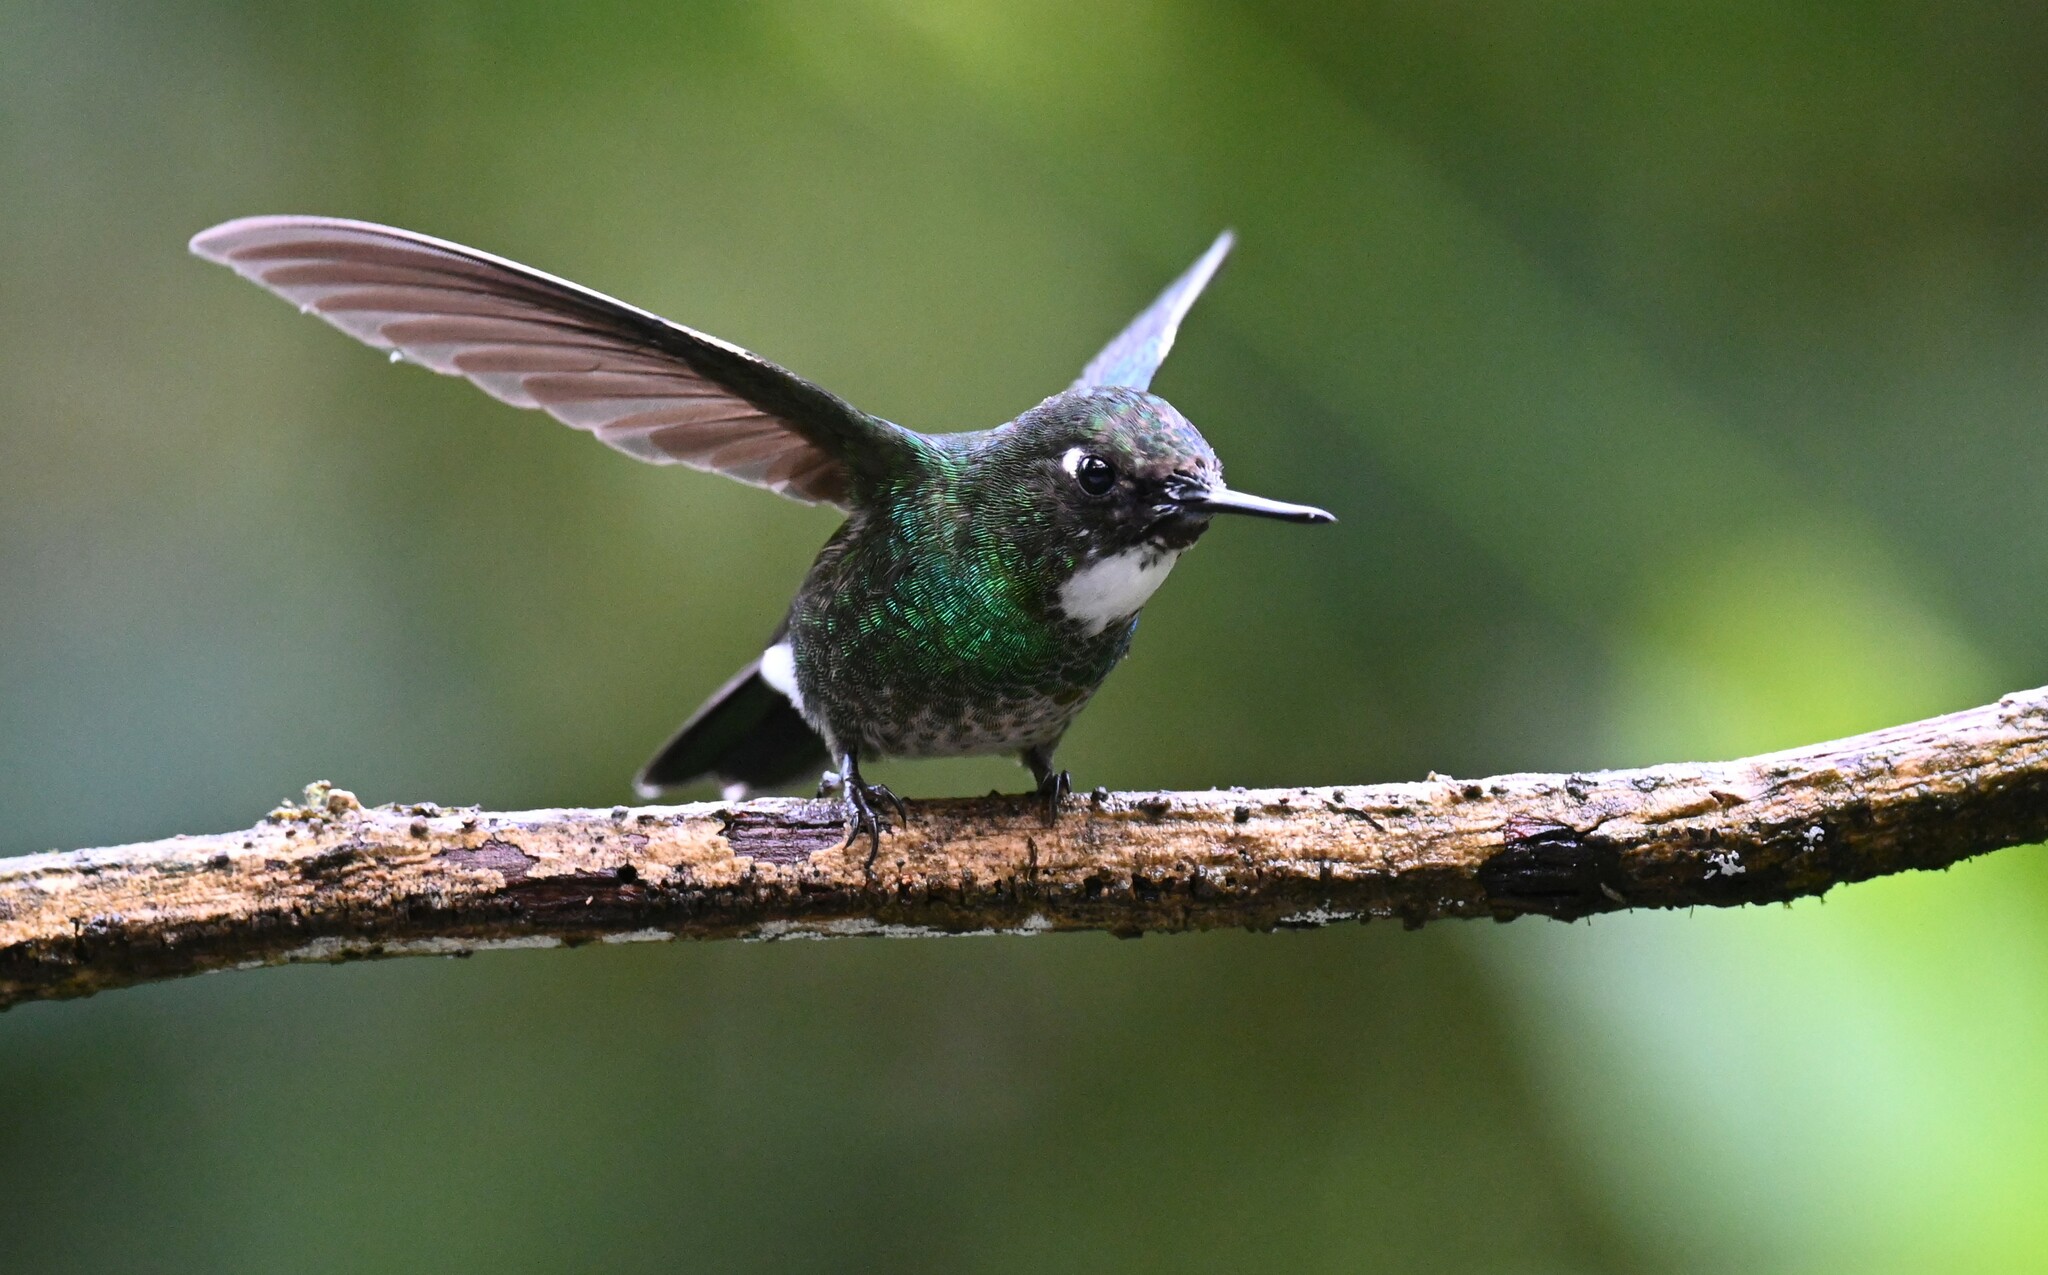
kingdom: Animalia
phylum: Chordata
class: Aves
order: Apodiformes
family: Trochilidae
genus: Heliangelus
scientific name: Heliangelus exortis
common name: Tourmaline sunangel
